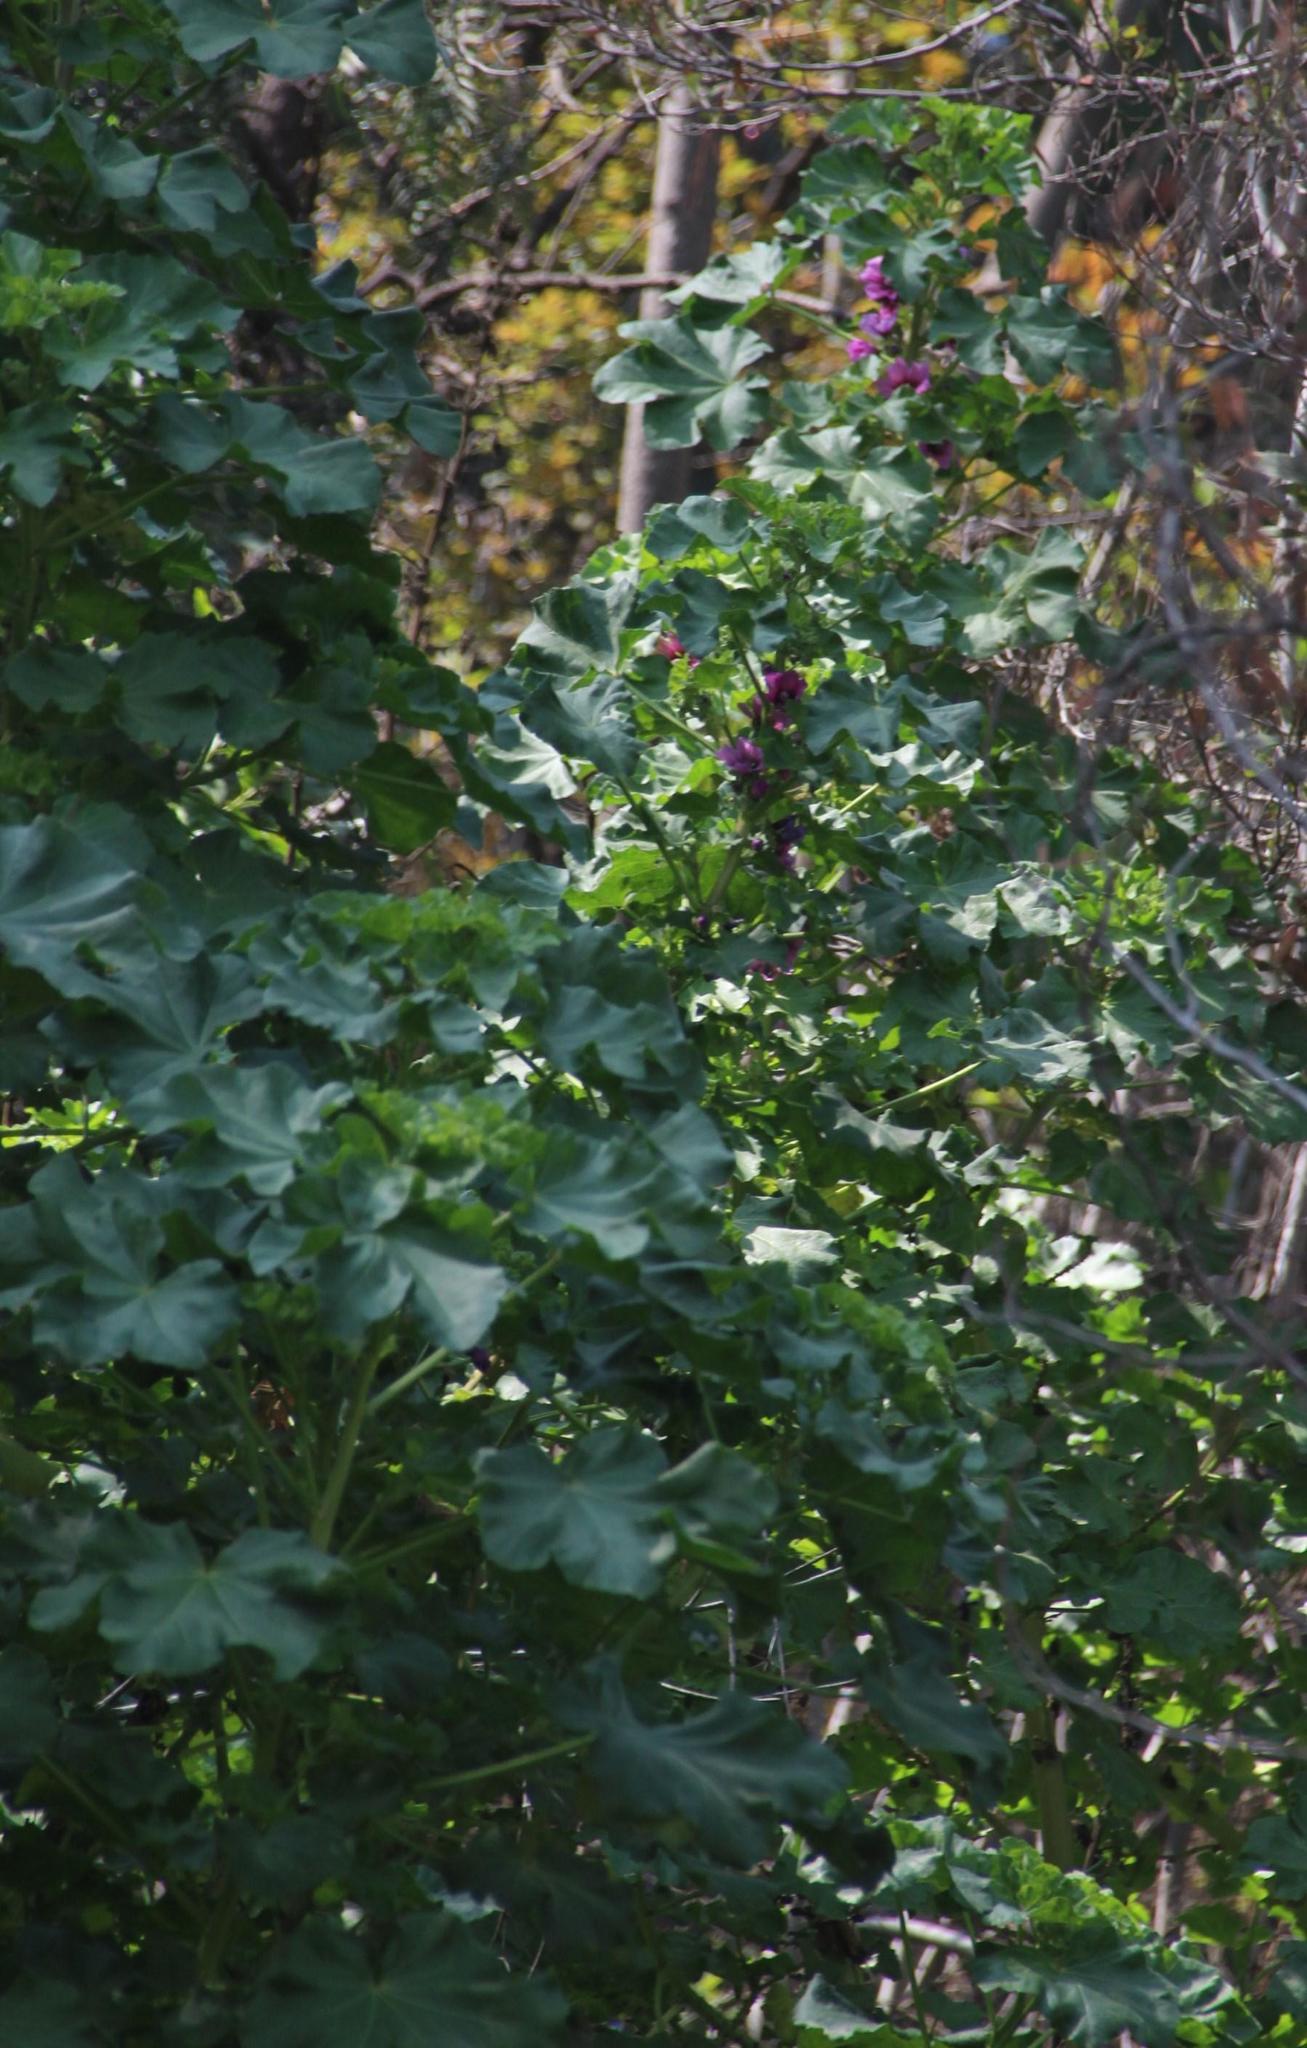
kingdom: Plantae
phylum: Tracheophyta
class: Magnoliopsida
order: Malvales
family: Malvaceae
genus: Malva
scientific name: Malva arborea
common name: Tree mallow
